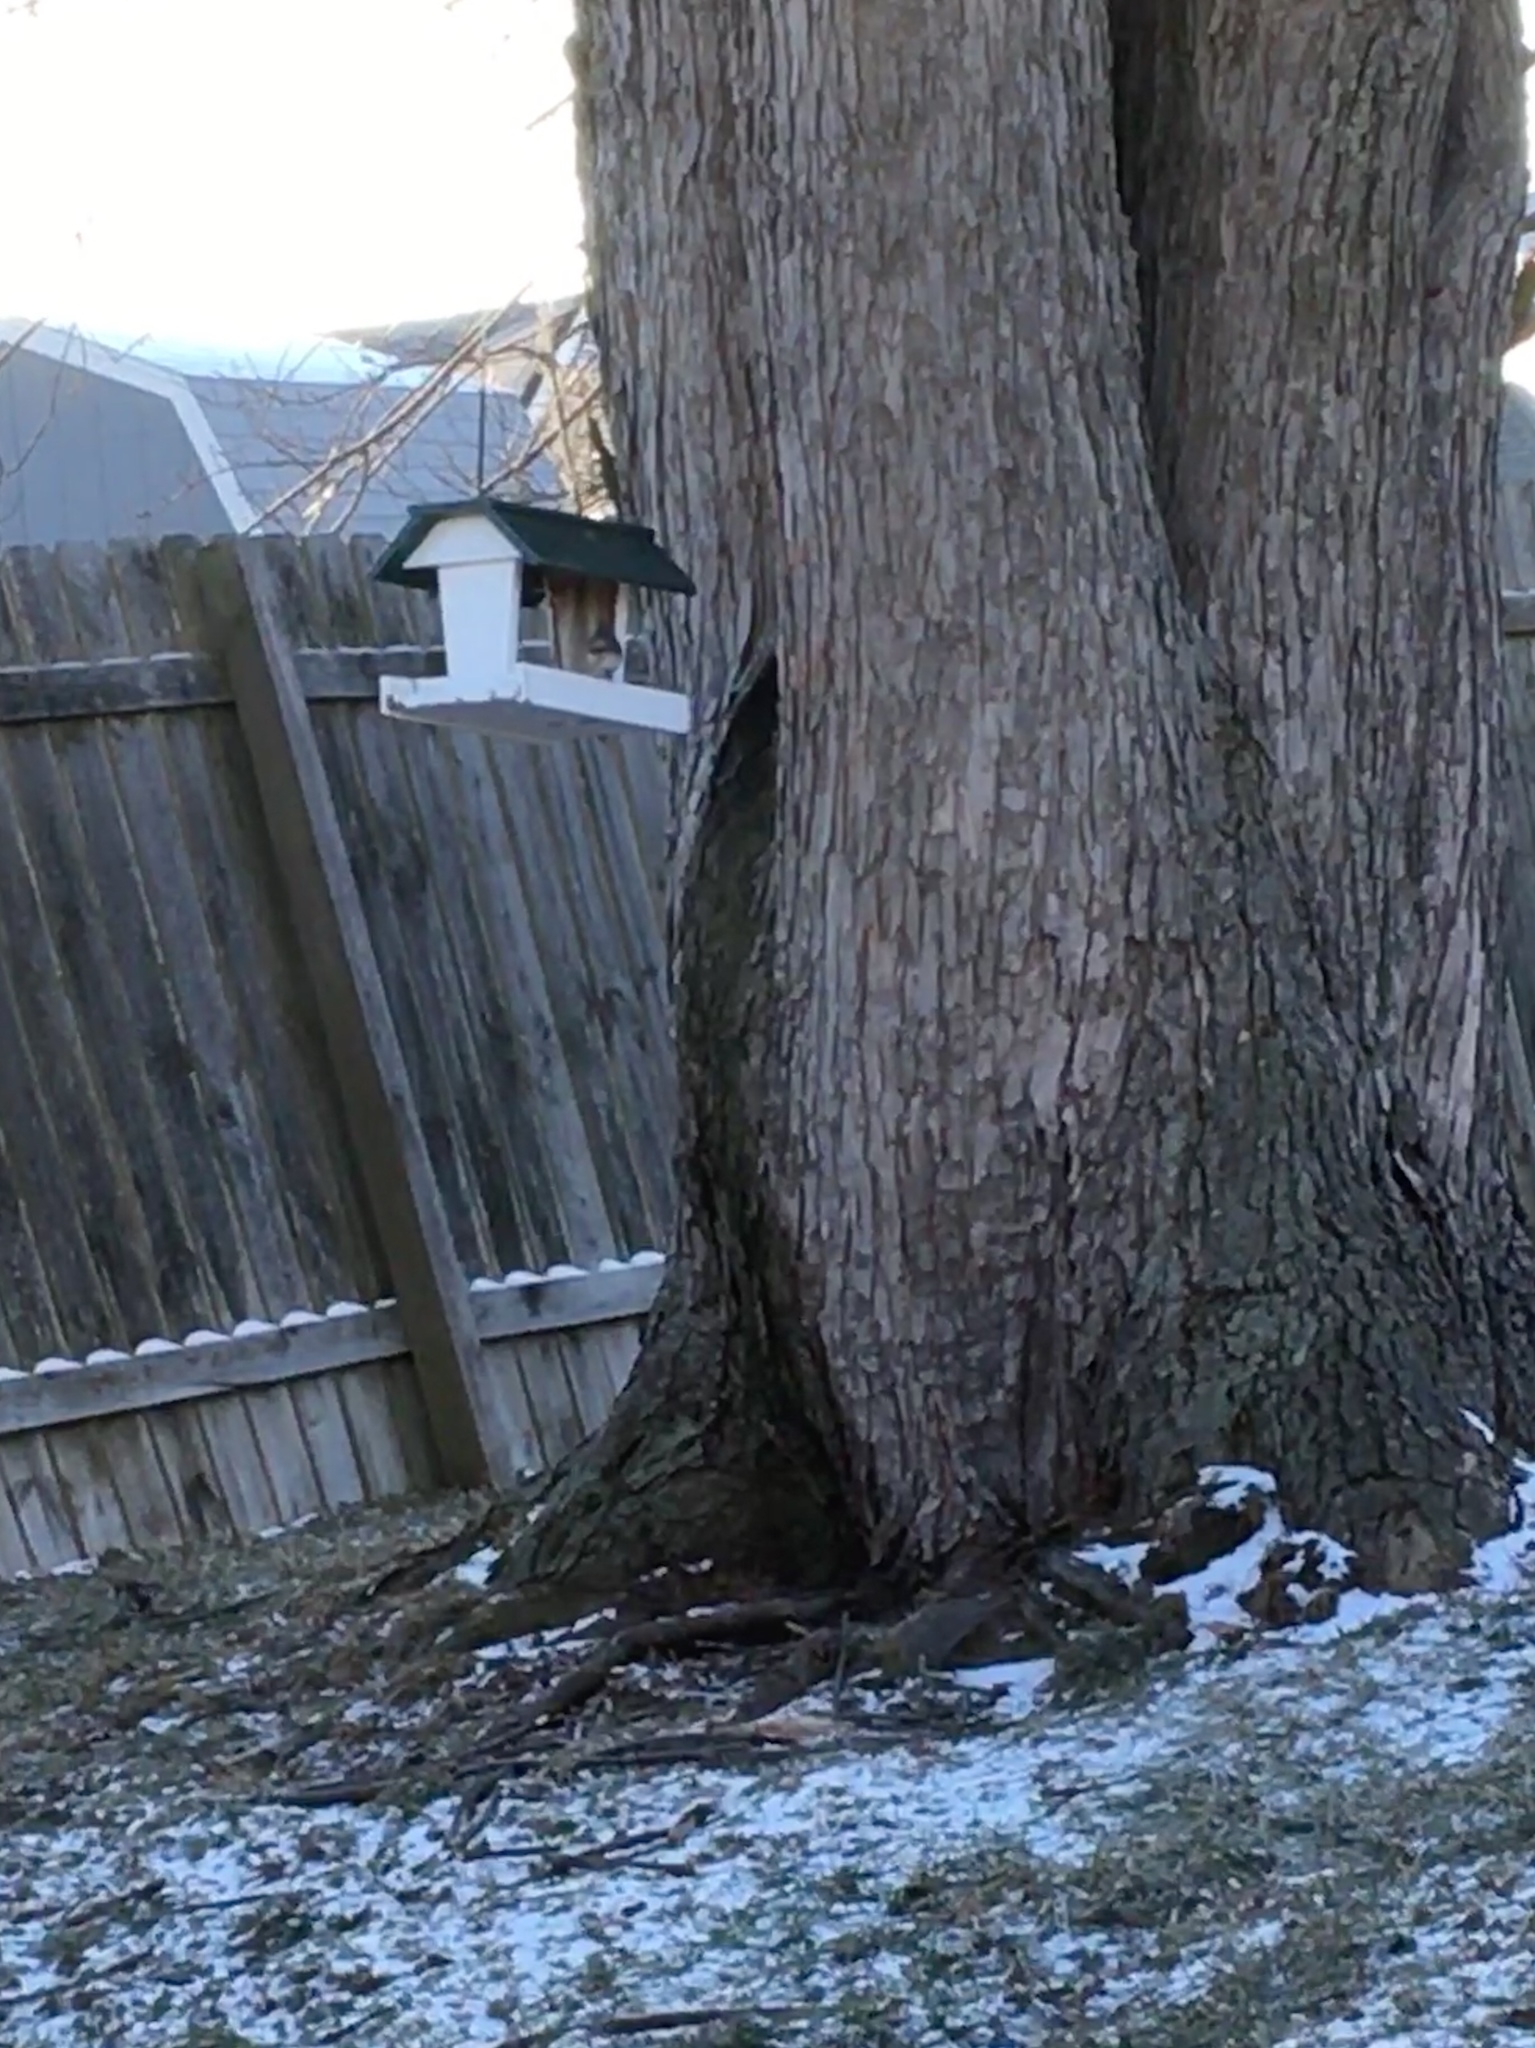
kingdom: Animalia
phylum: Chordata
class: Aves
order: Passeriformes
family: Paridae
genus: Baeolophus
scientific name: Baeolophus bicolor
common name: Tufted titmouse
